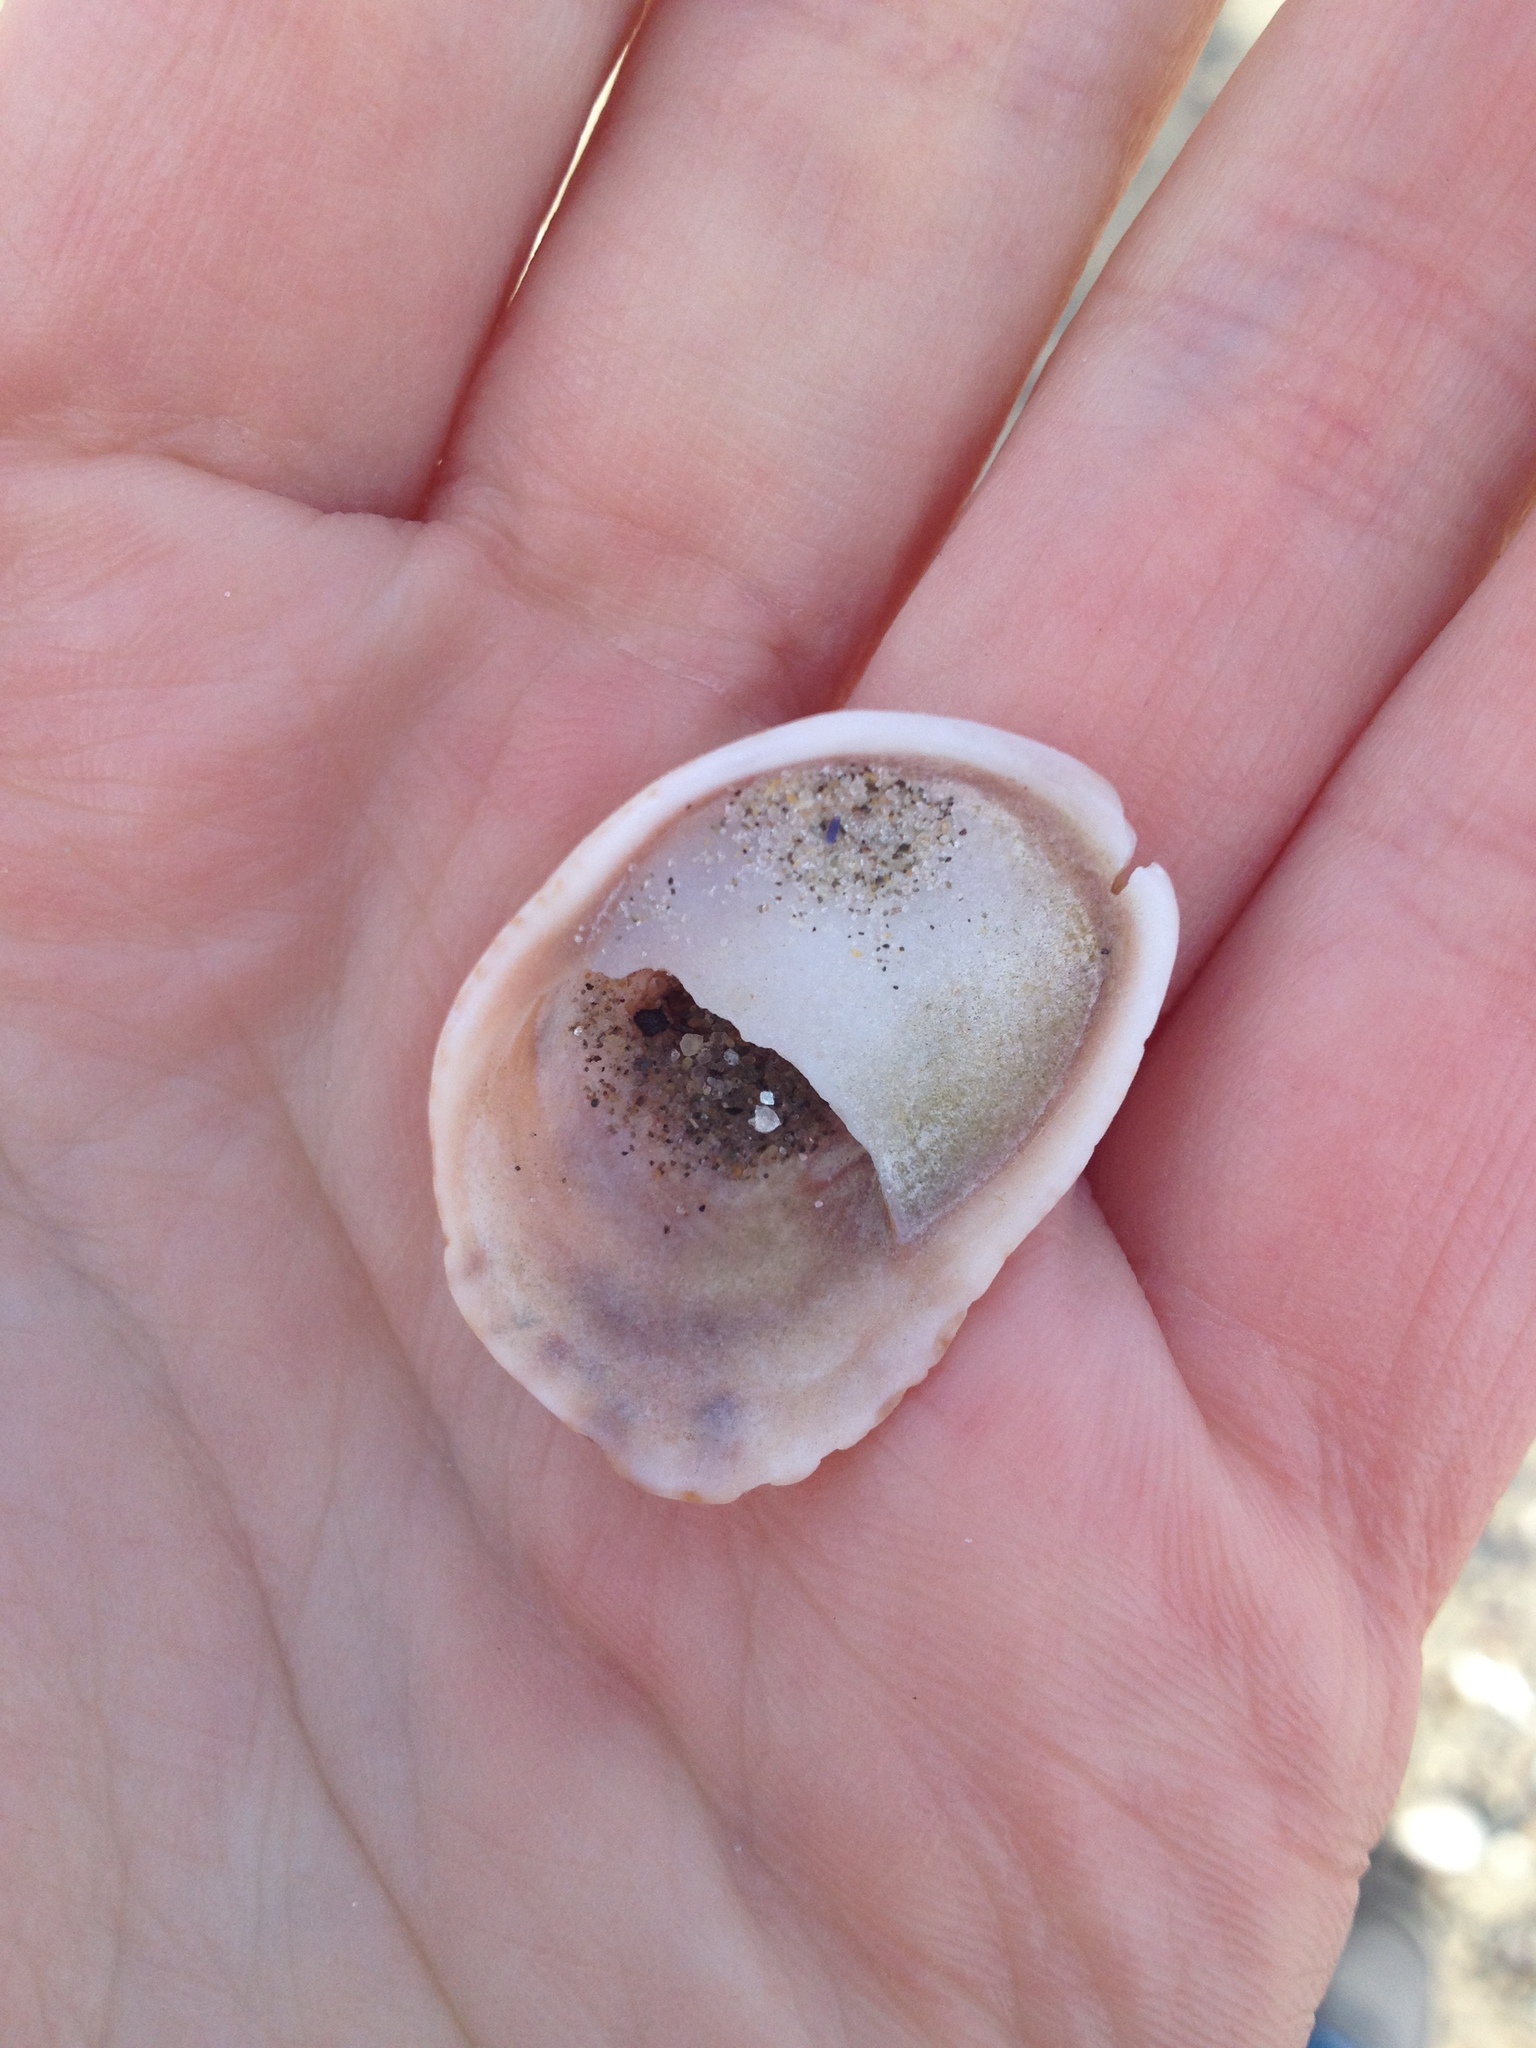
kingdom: Animalia
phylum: Mollusca
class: Gastropoda
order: Littorinimorpha
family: Calyptraeidae
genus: Crepidula
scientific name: Crepidula fornicata
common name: Slipper limpet
